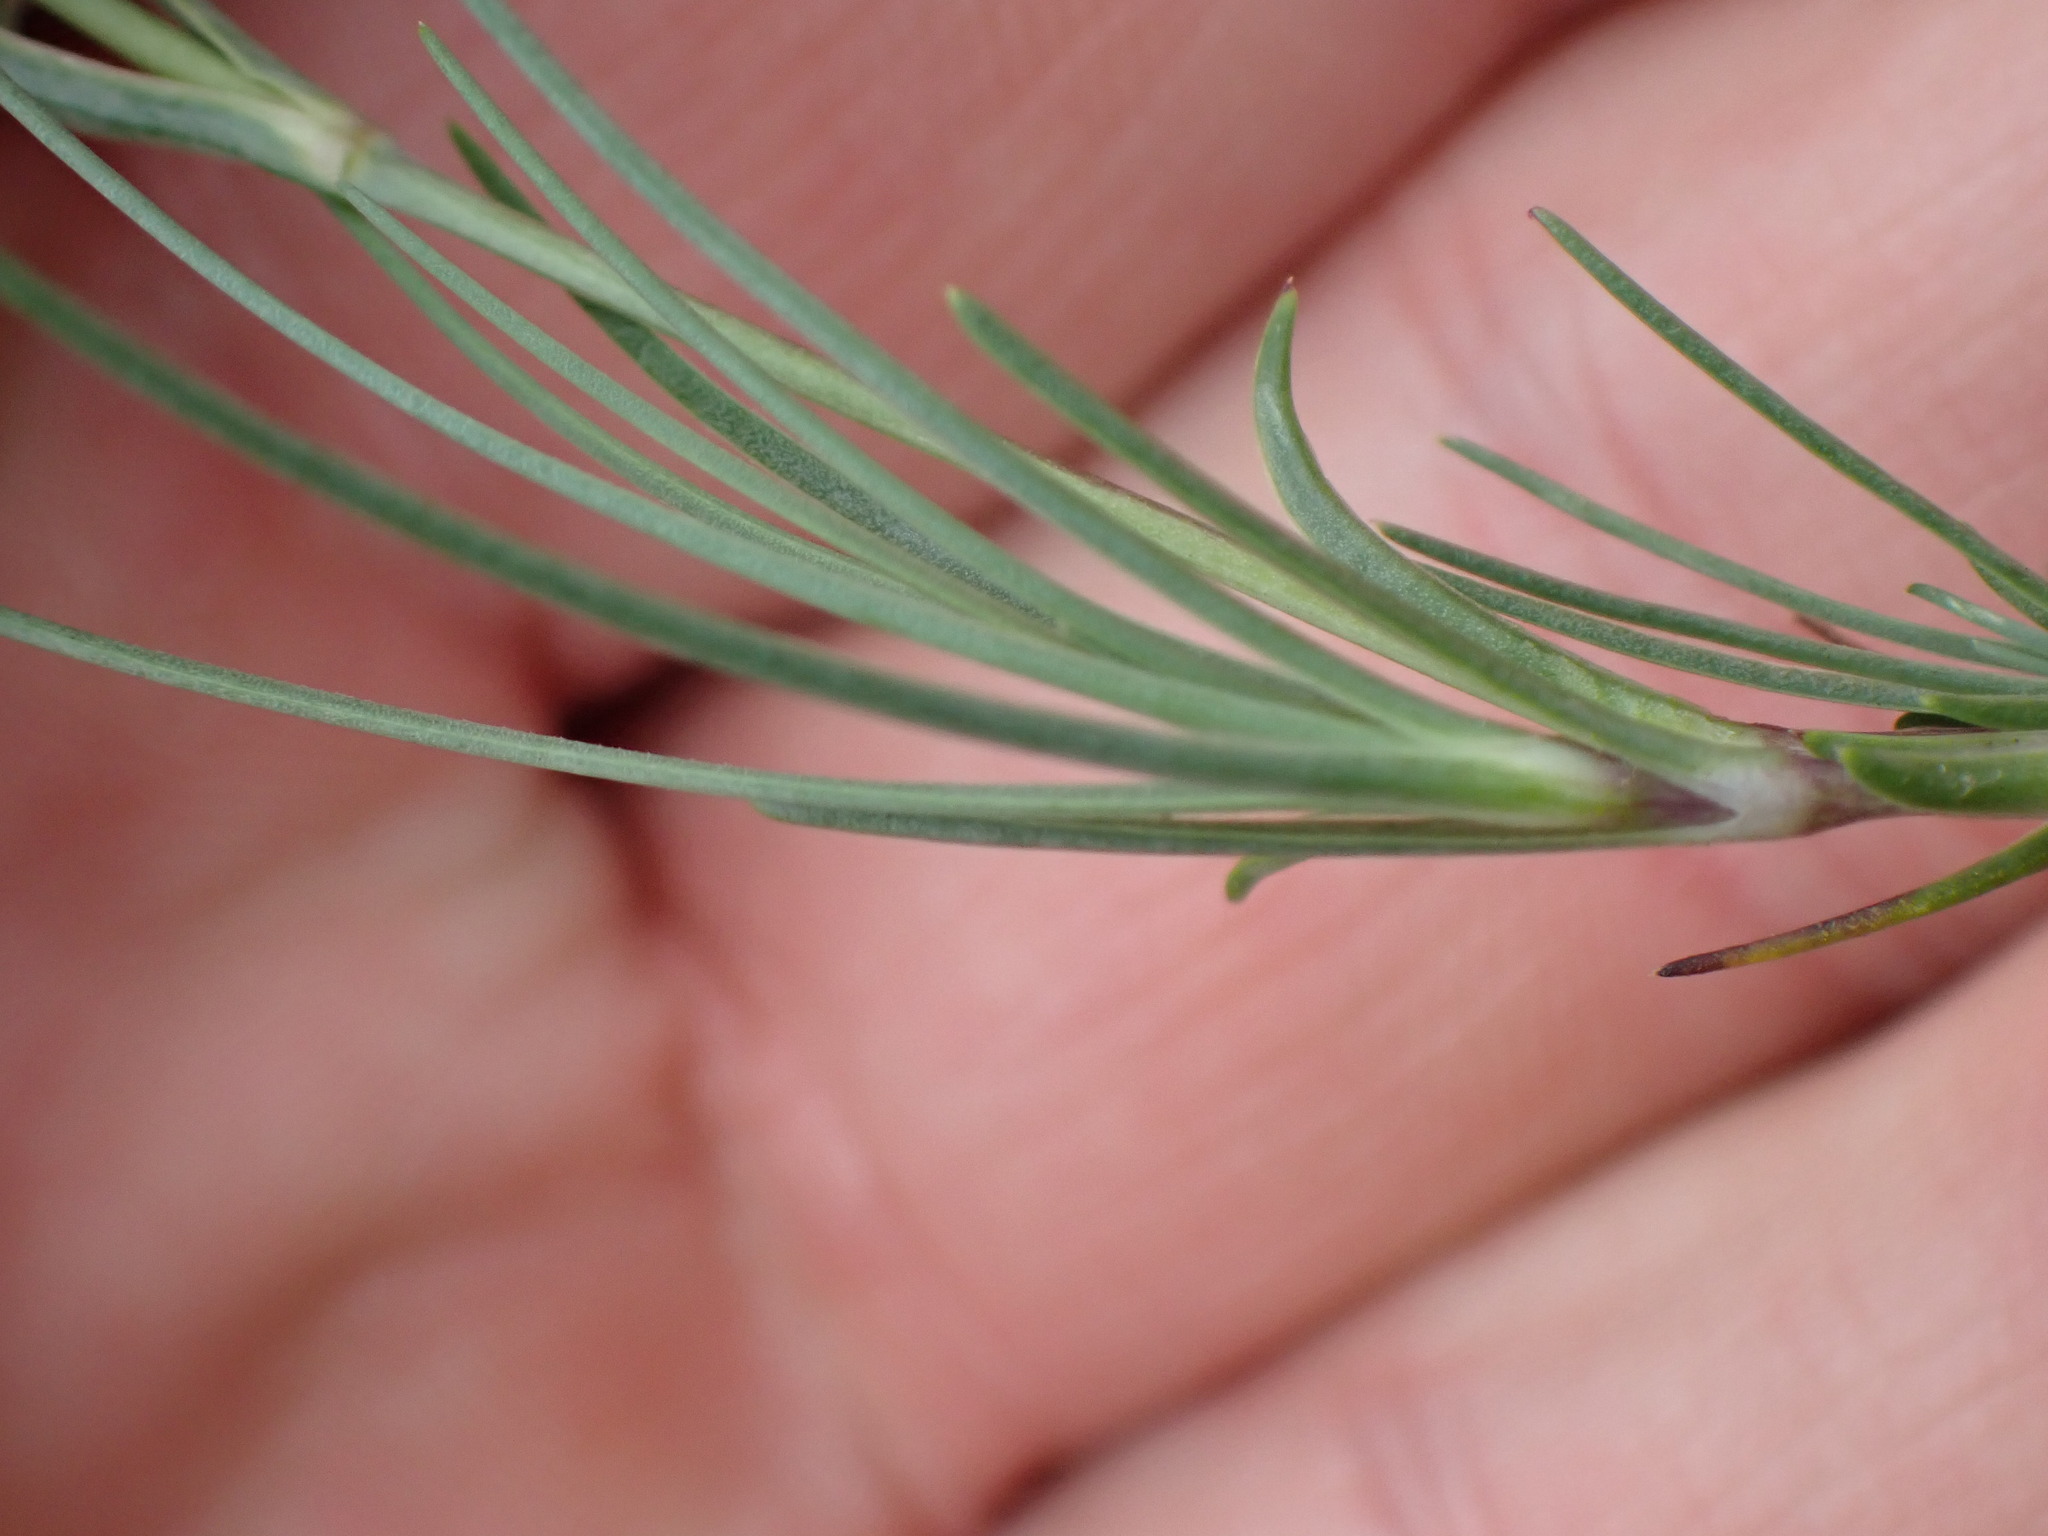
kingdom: Plantae
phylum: Tracheophyta
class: Magnoliopsida
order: Caryophyllales
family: Caryophyllaceae
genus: Eremogone
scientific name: Eremogone capillaris
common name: Slender mountain sandwort
